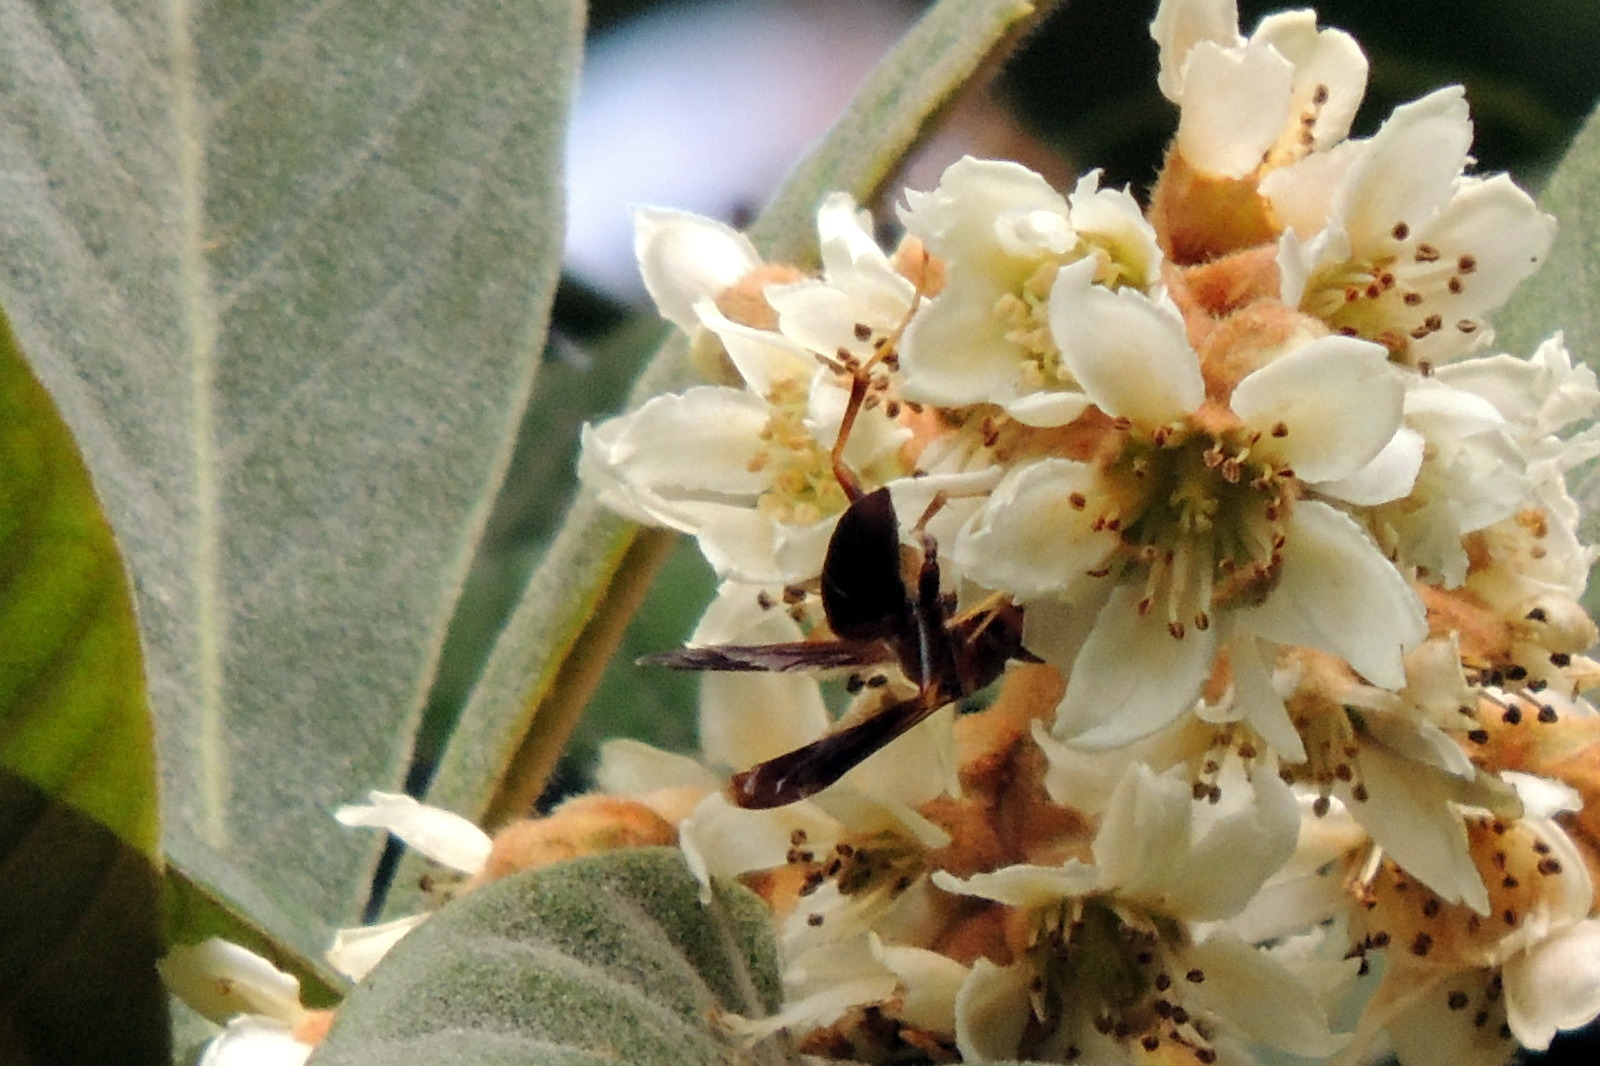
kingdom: Animalia
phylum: Arthropoda
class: Insecta
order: Hymenoptera
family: Eumenidae
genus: Polistes
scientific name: Polistes fuscatus
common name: Dark paper wasp
